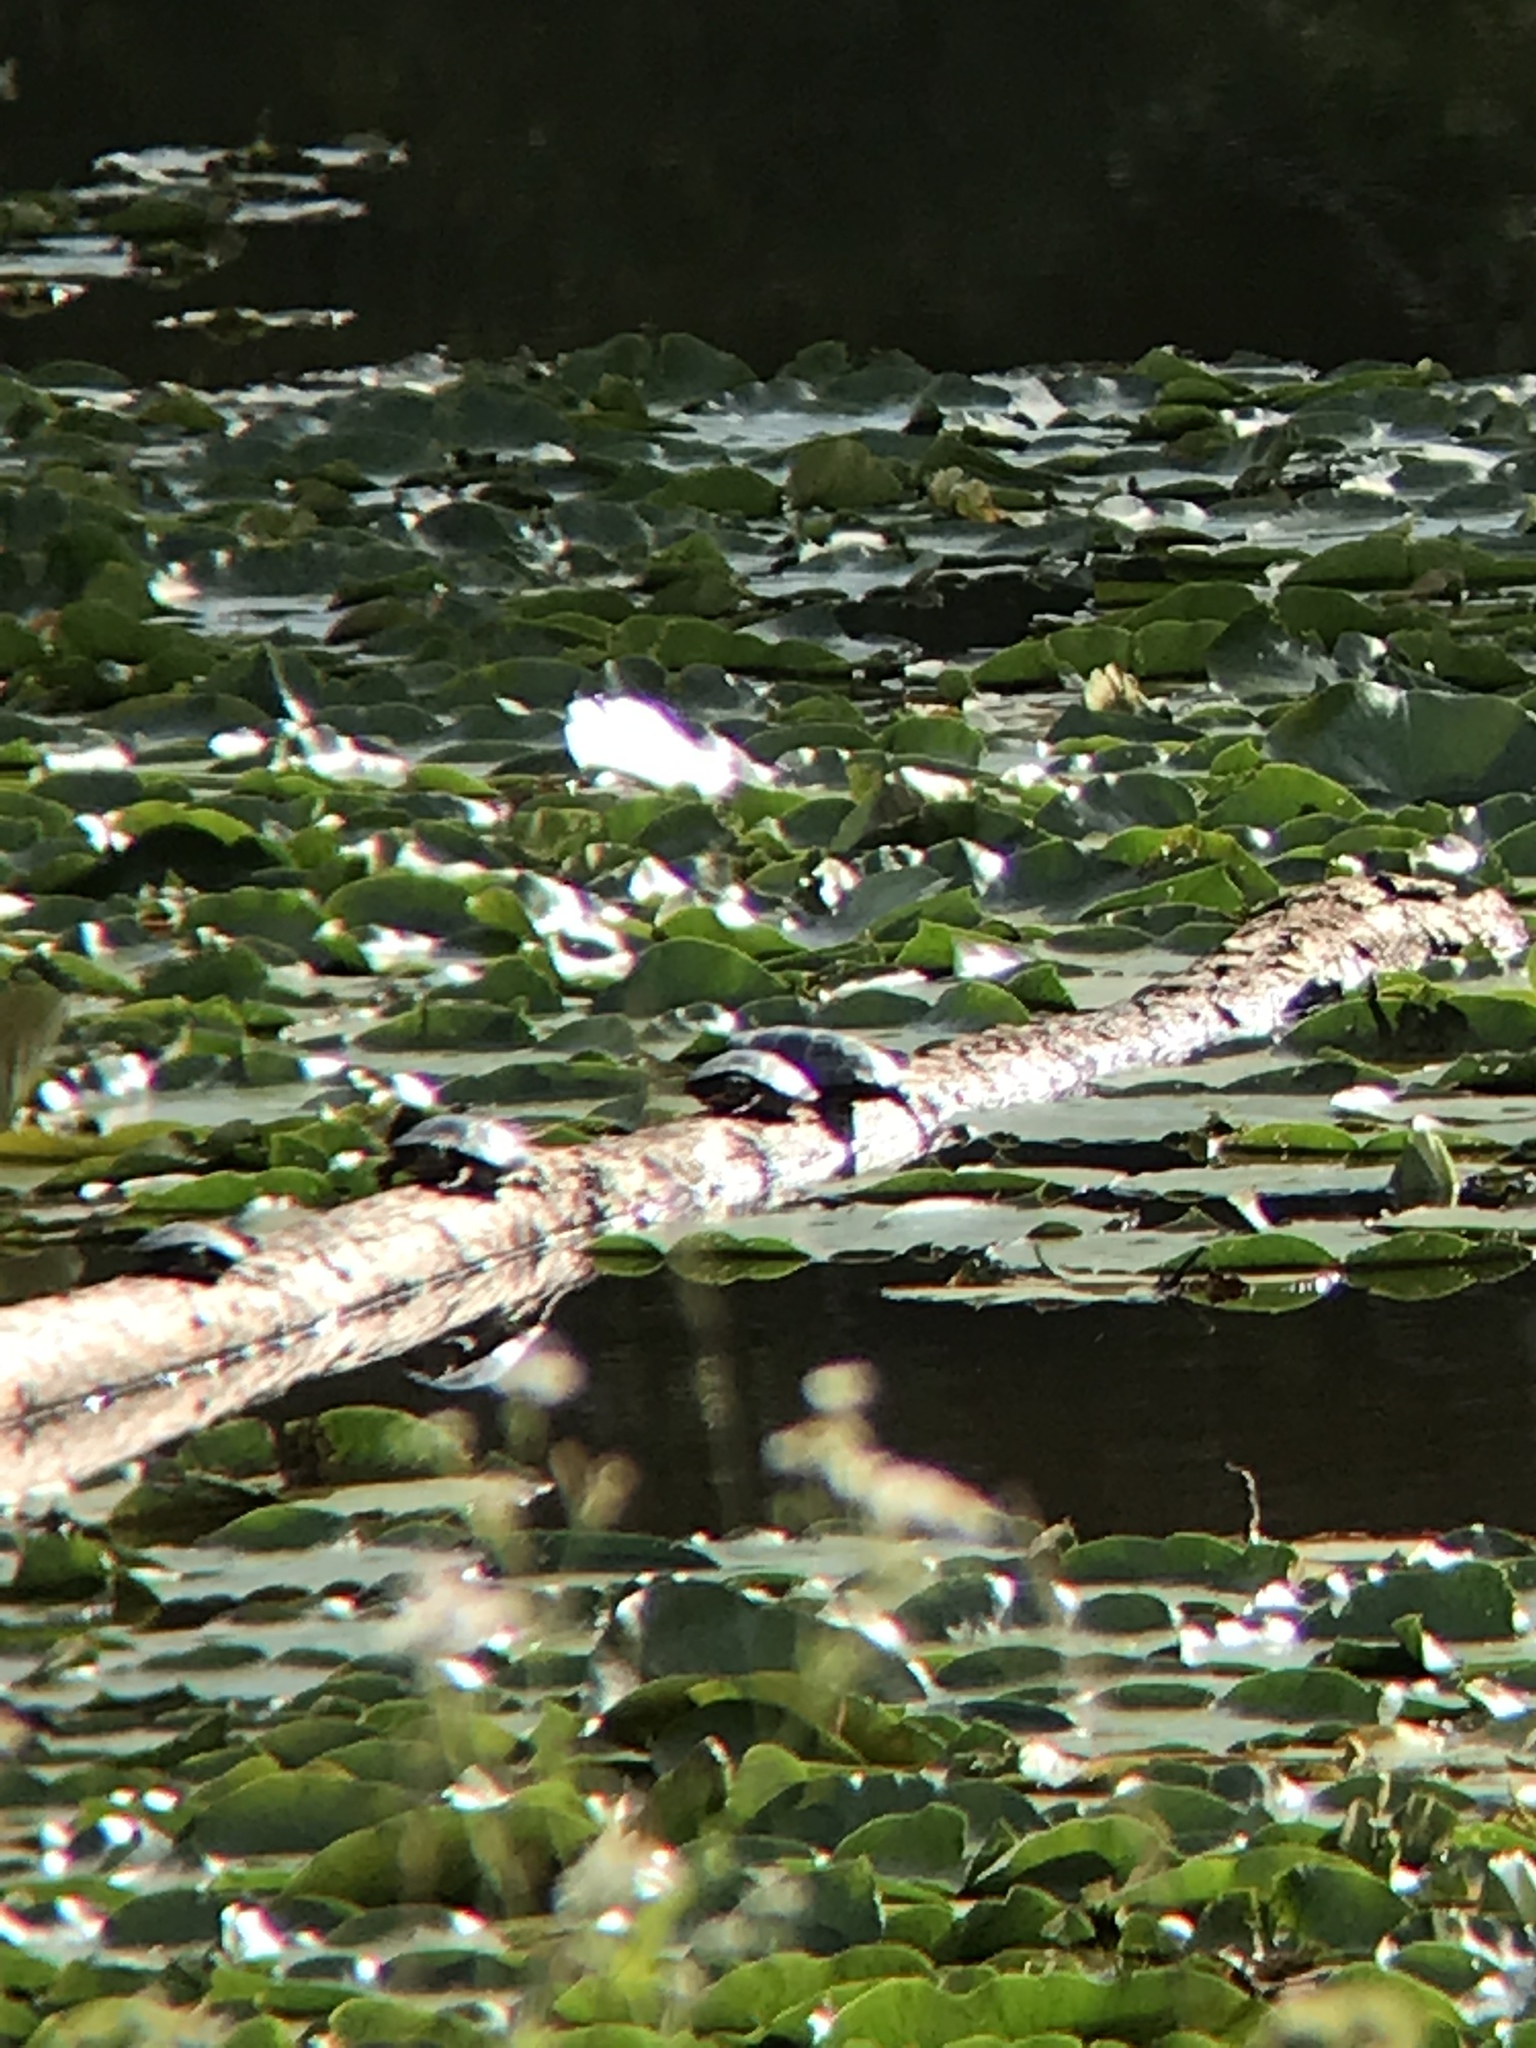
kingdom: Animalia
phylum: Chordata
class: Testudines
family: Emydidae
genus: Chrysemys
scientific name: Chrysemys picta
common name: Painted turtle
